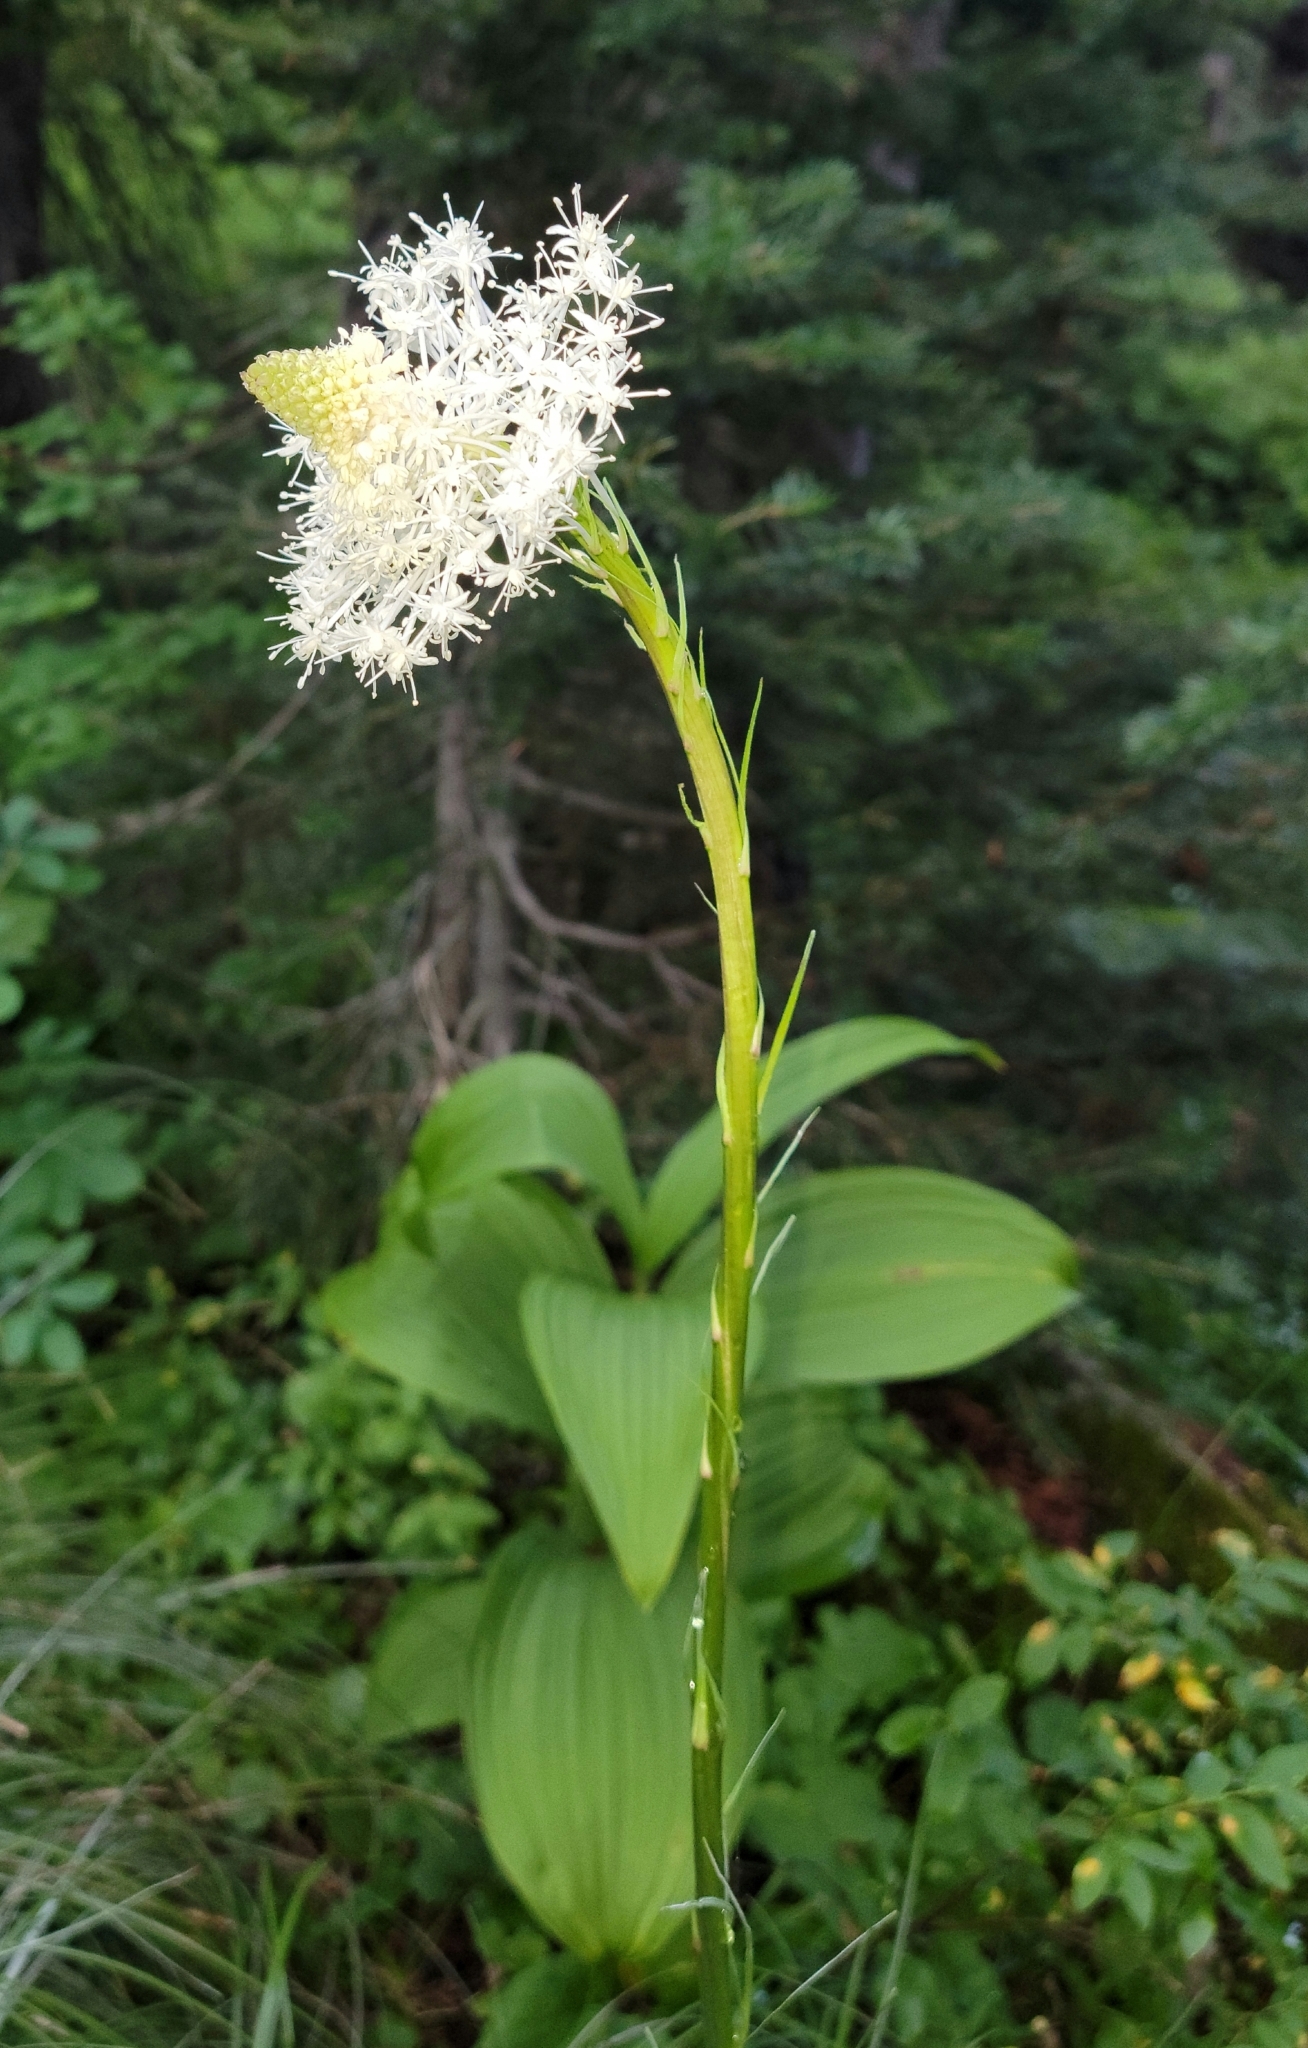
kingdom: Plantae
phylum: Tracheophyta
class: Liliopsida
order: Liliales
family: Melanthiaceae
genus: Xerophyllum
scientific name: Xerophyllum tenax
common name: Bear-grass
